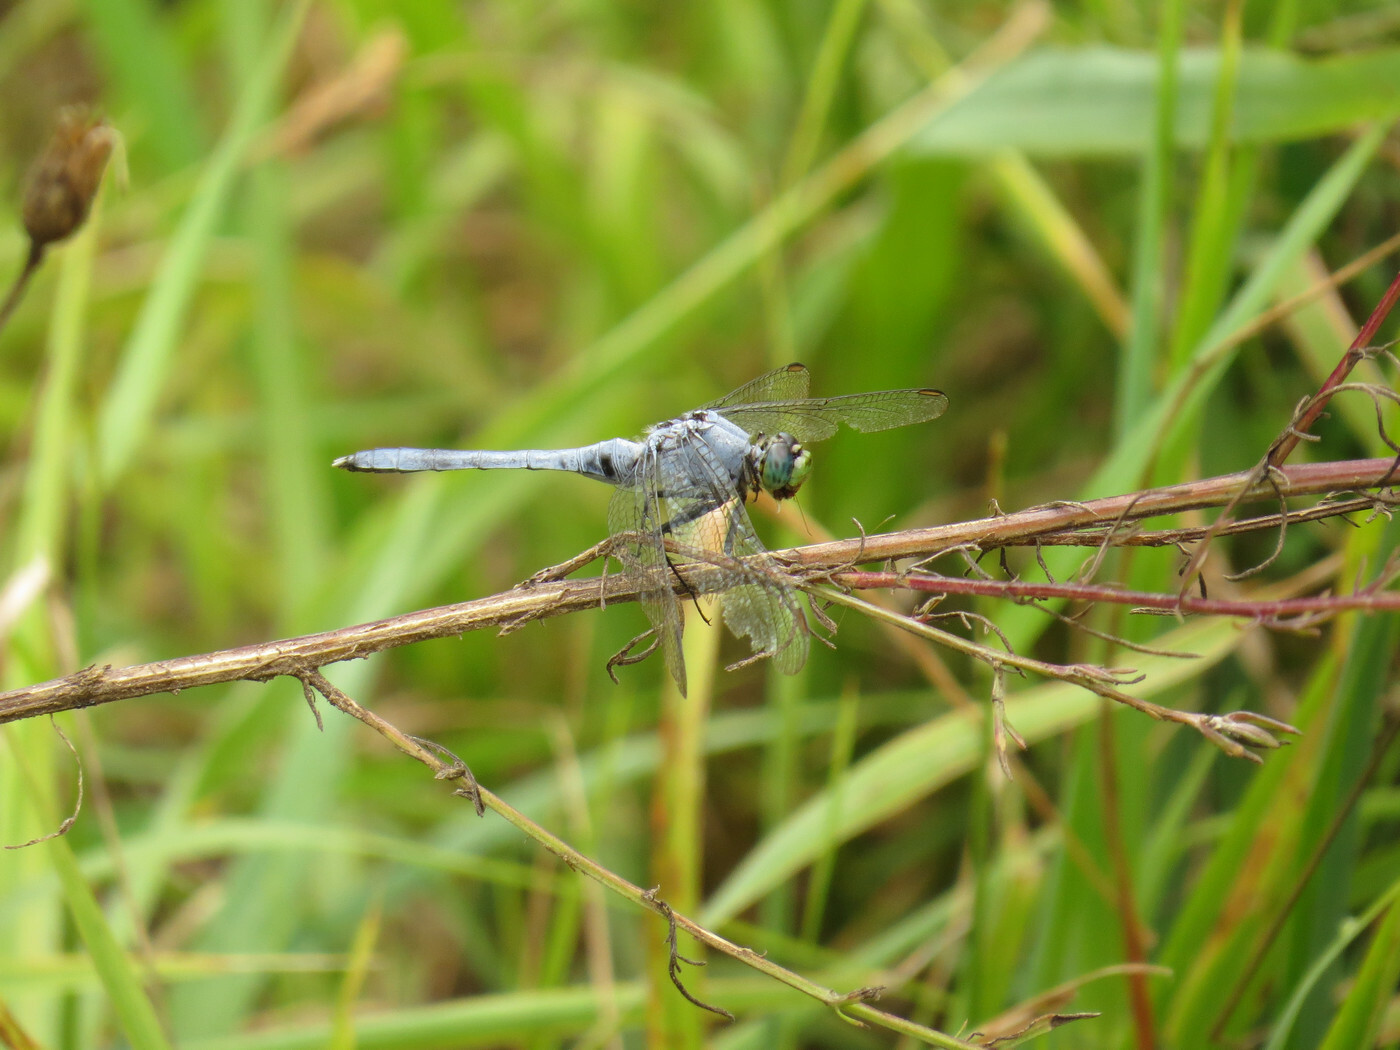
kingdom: Animalia
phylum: Arthropoda
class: Insecta
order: Odonata
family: Libellulidae
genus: Erythemis
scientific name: Erythemis simplicicollis
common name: Eastern pondhawk
